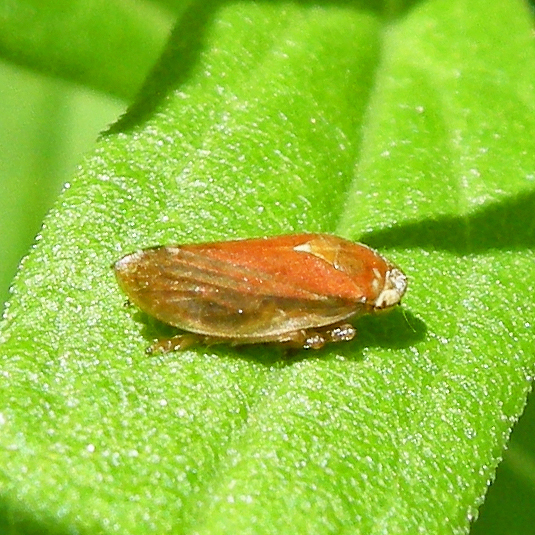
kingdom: Animalia
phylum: Arthropoda
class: Insecta
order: Hemiptera
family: Aphrophoridae
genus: Philaenus
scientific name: Philaenus spumarius
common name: Meadow spittlebug
